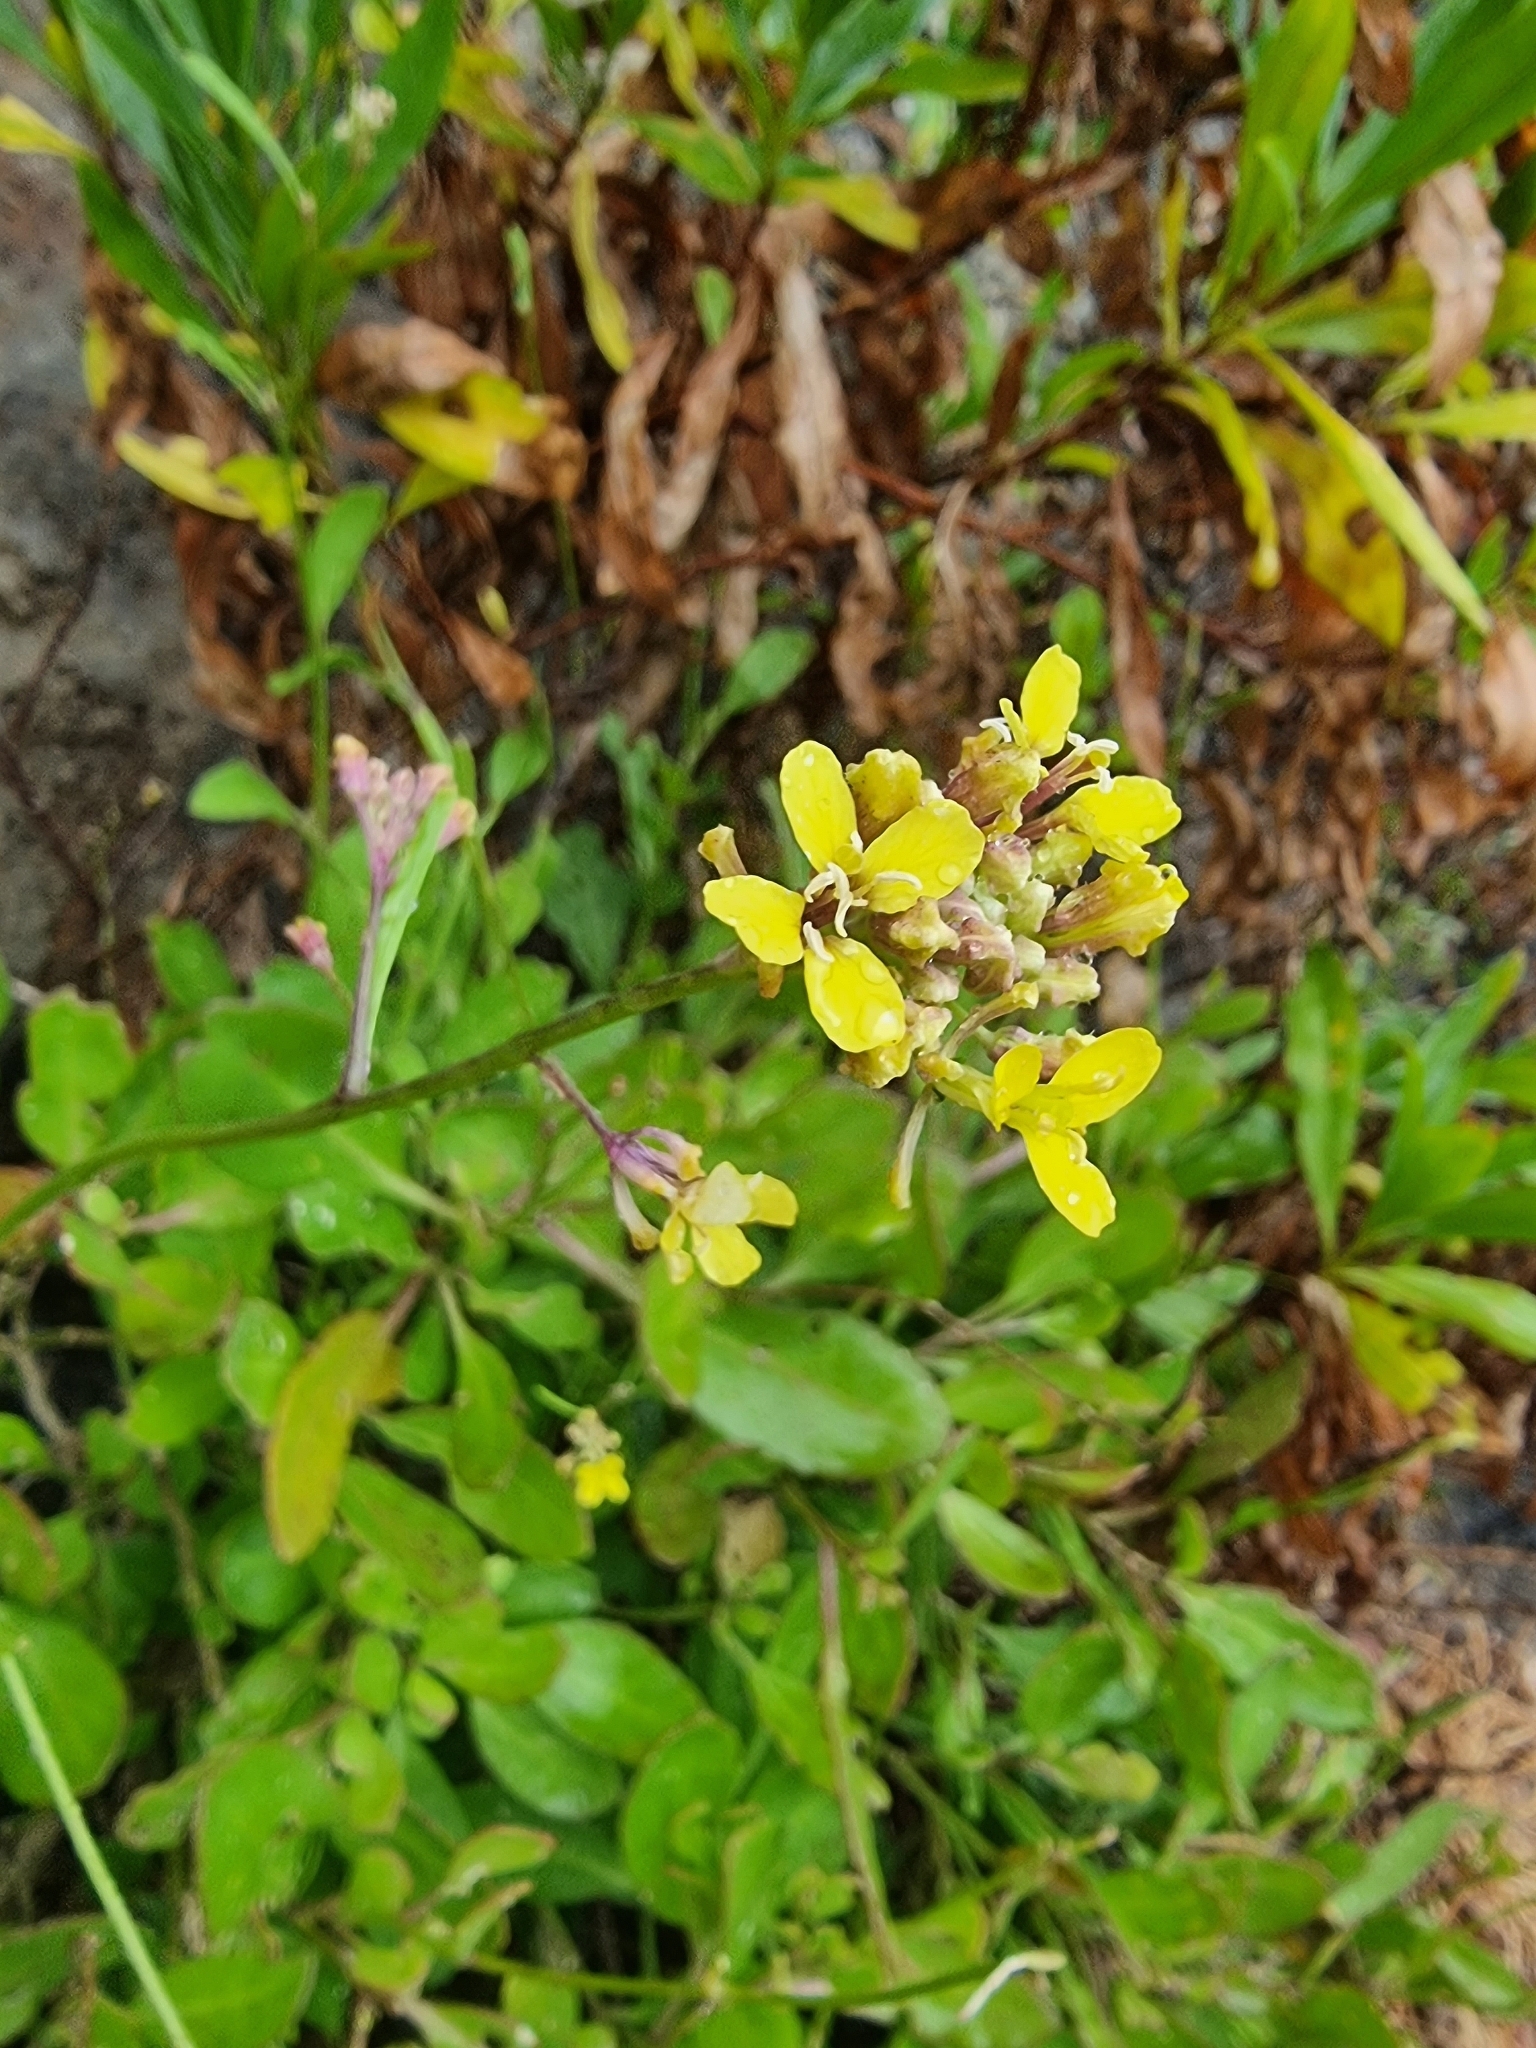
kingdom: Plantae
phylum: Tracheophyta
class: Magnoliopsida
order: Brassicales
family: Brassicaceae
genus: Sinapidendron
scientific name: Sinapidendron frutescens
